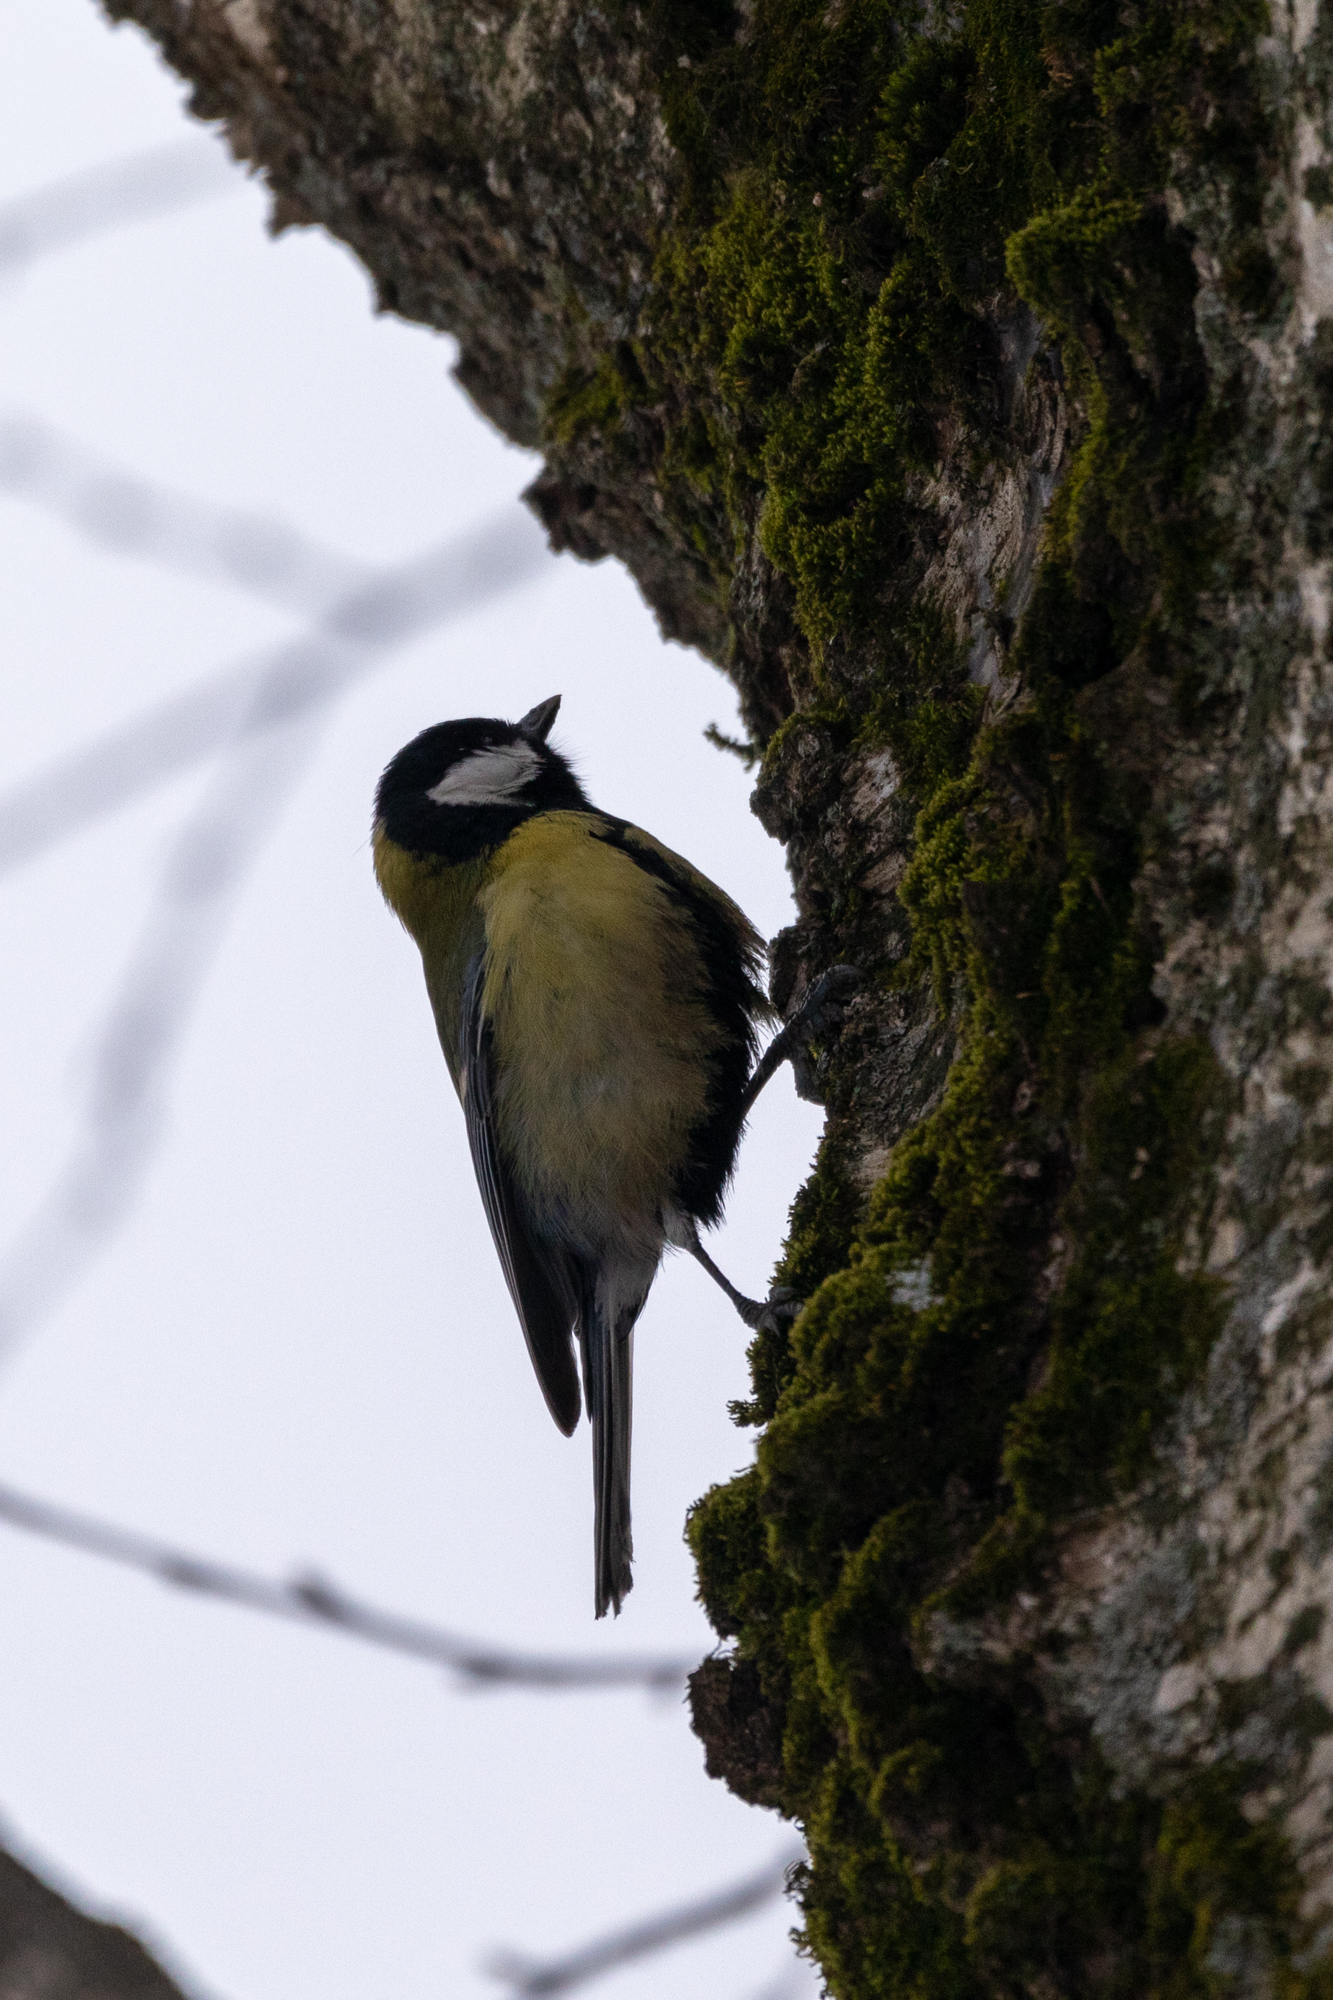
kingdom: Animalia
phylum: Chordata
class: Aves
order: Passeriformes
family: Paridae
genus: Parus
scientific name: Parus major
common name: Great tit
